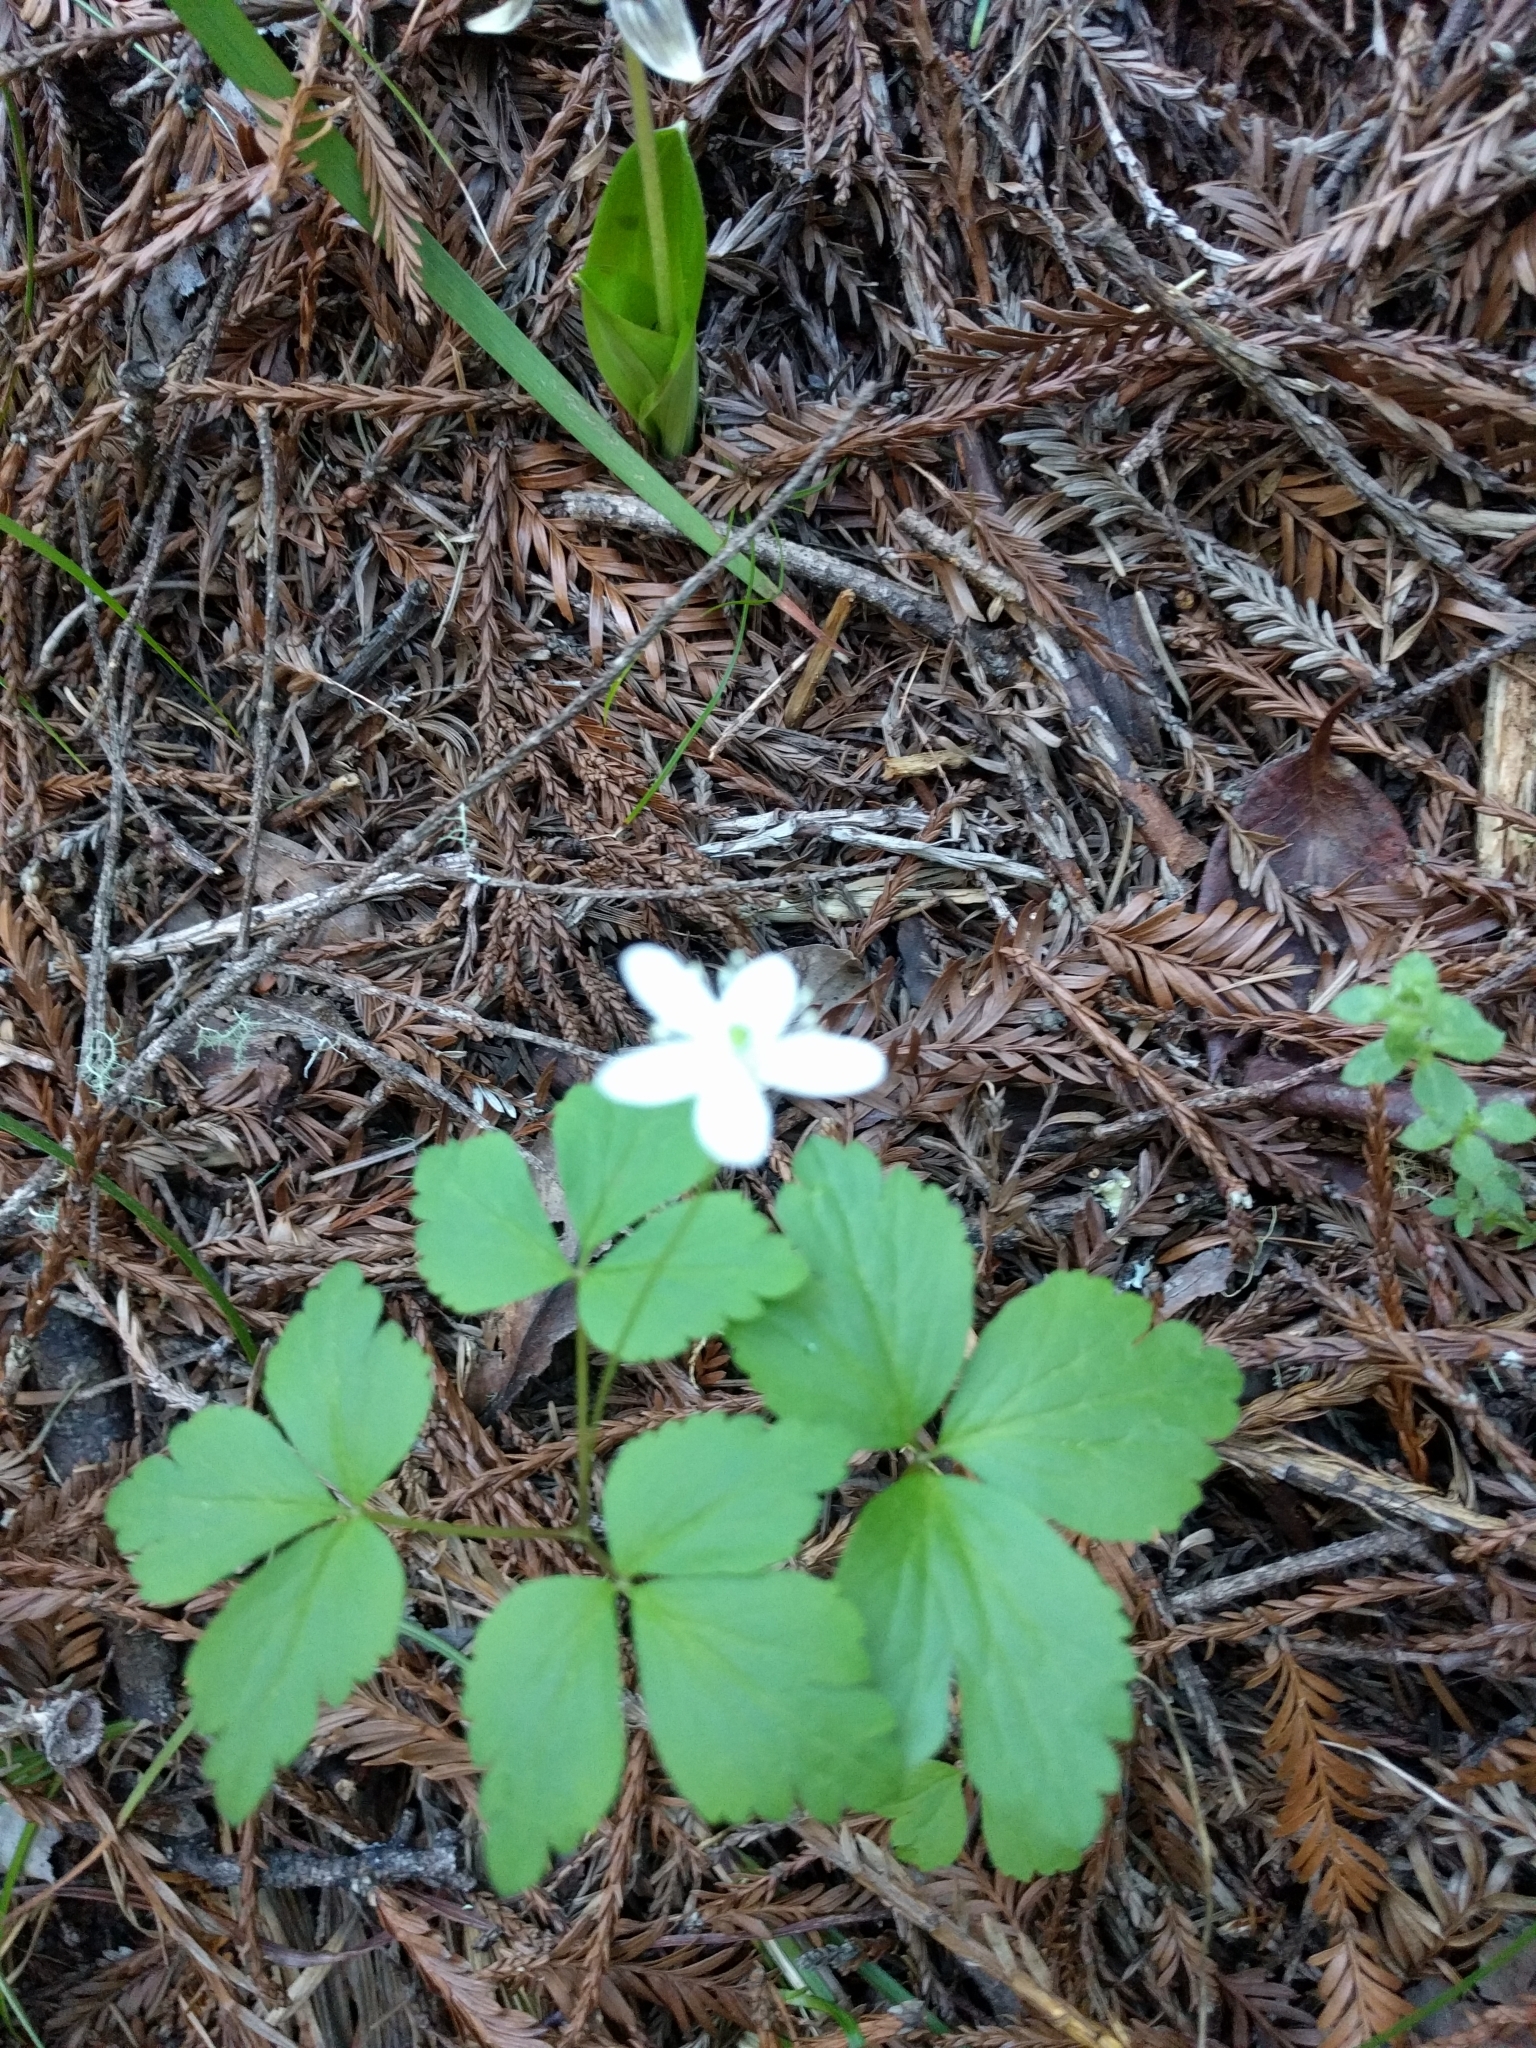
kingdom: Plantae
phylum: Tracheophyta
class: Magnoliopsida
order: Ranunculales
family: Ranunculaceae
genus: Anemone
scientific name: Anemone
